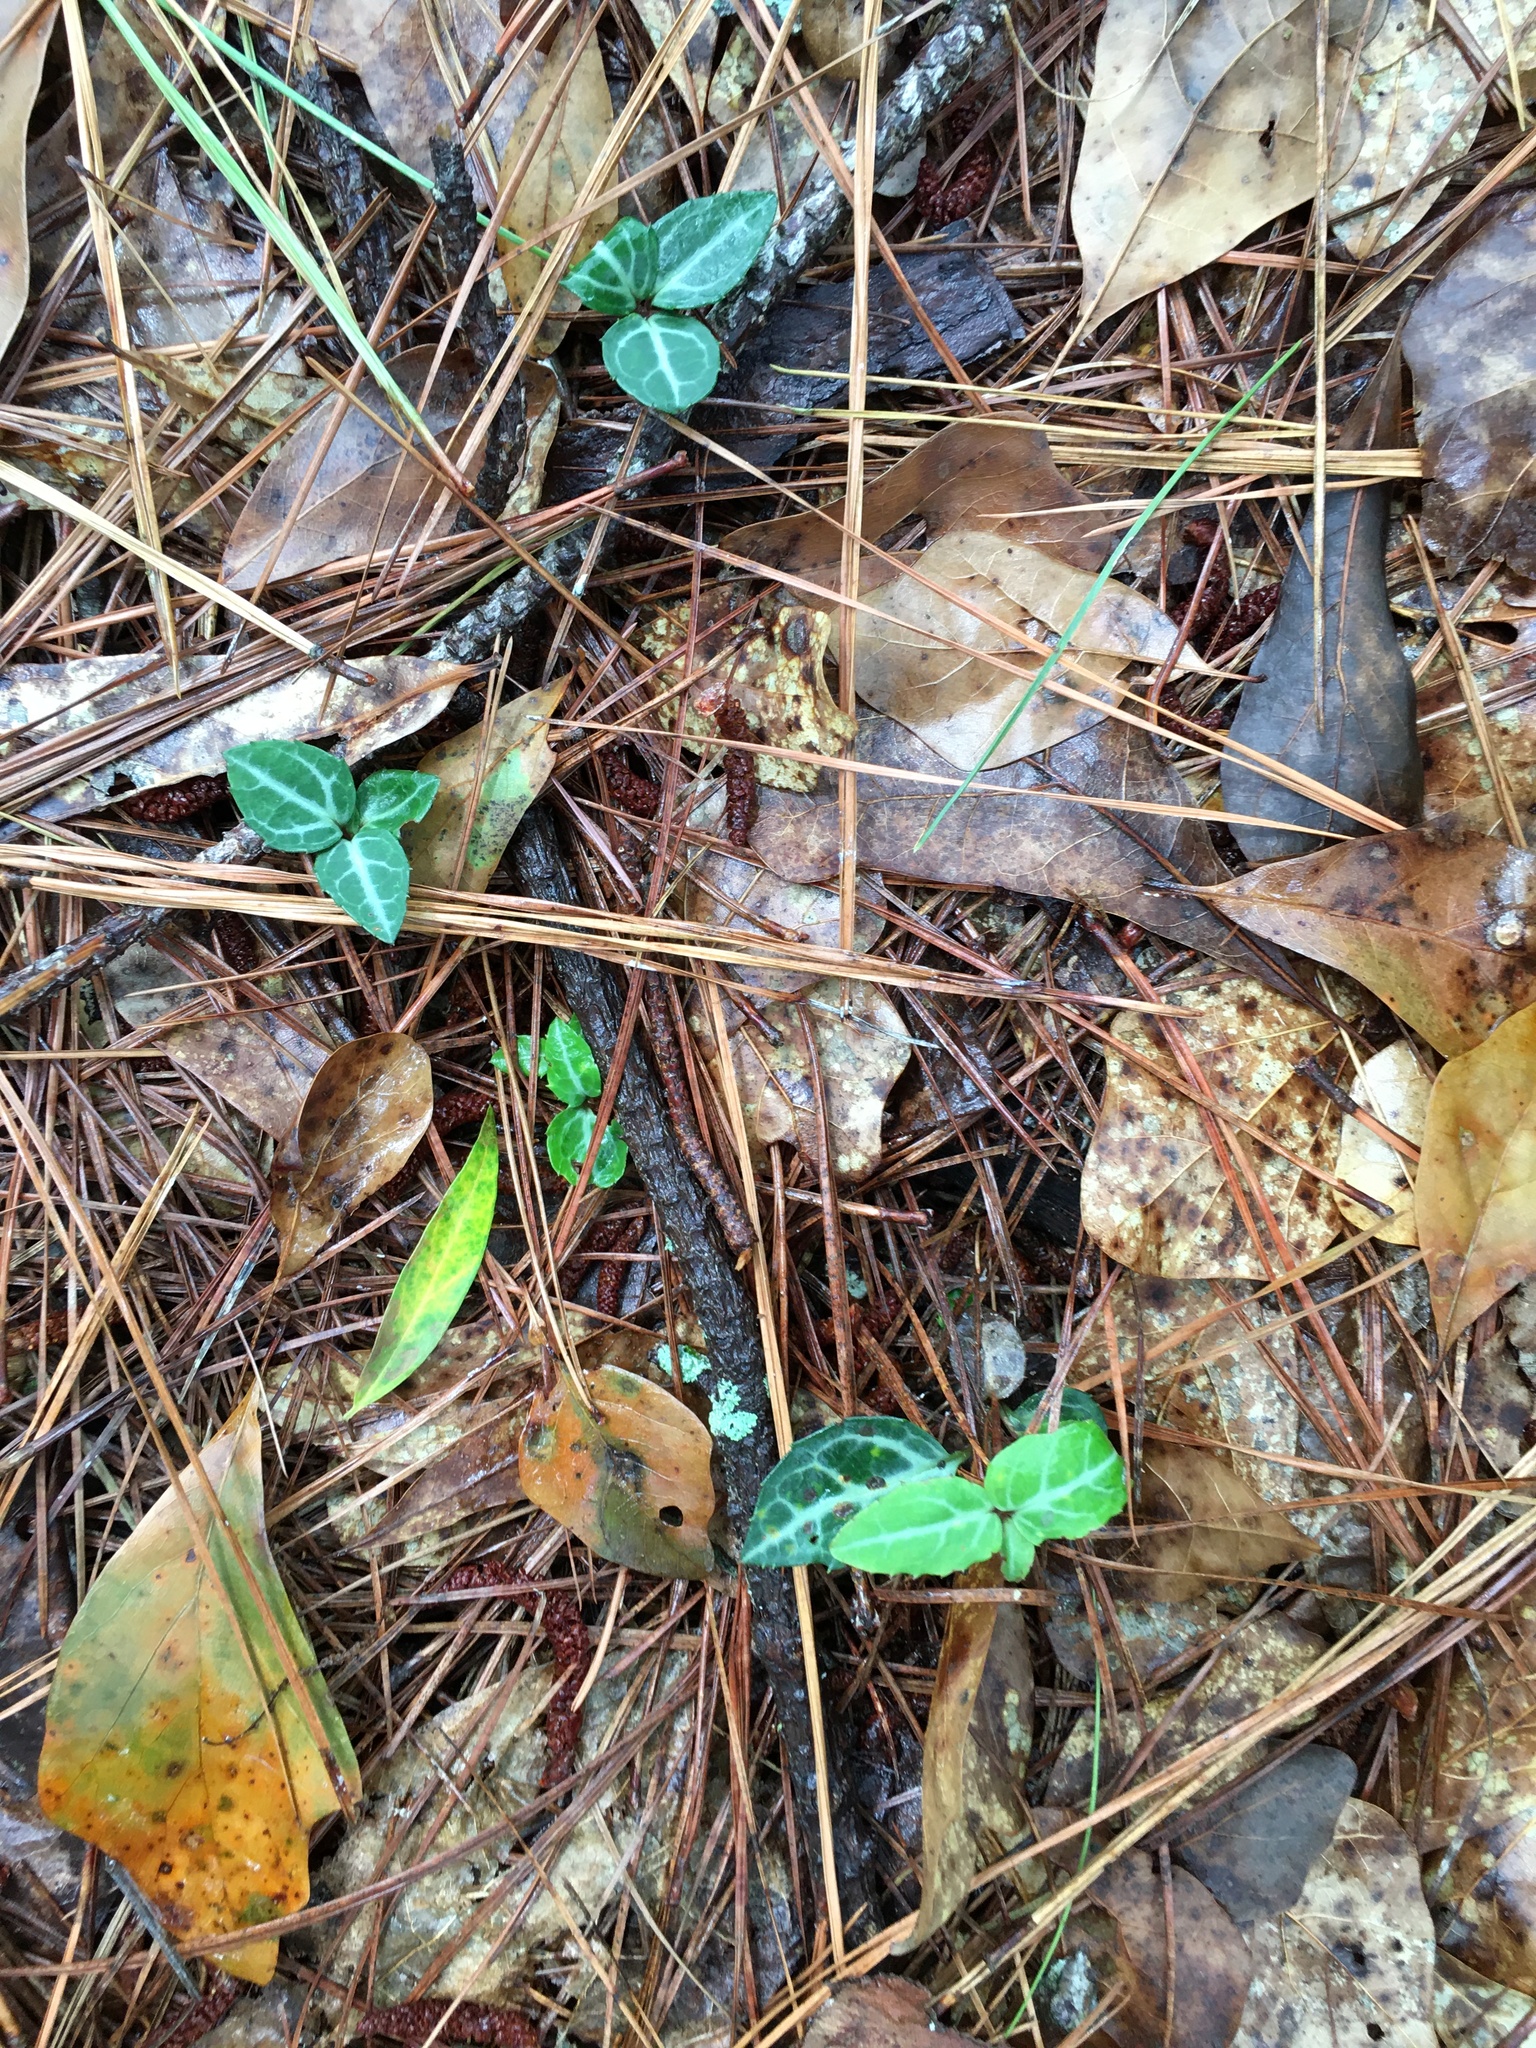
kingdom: Plantae
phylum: Tracheophyta
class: Magnoliopsida
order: Ericales
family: Ericaceae
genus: Chimaphila
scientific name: Chimaphila maculata
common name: Spotted pipsissewa
